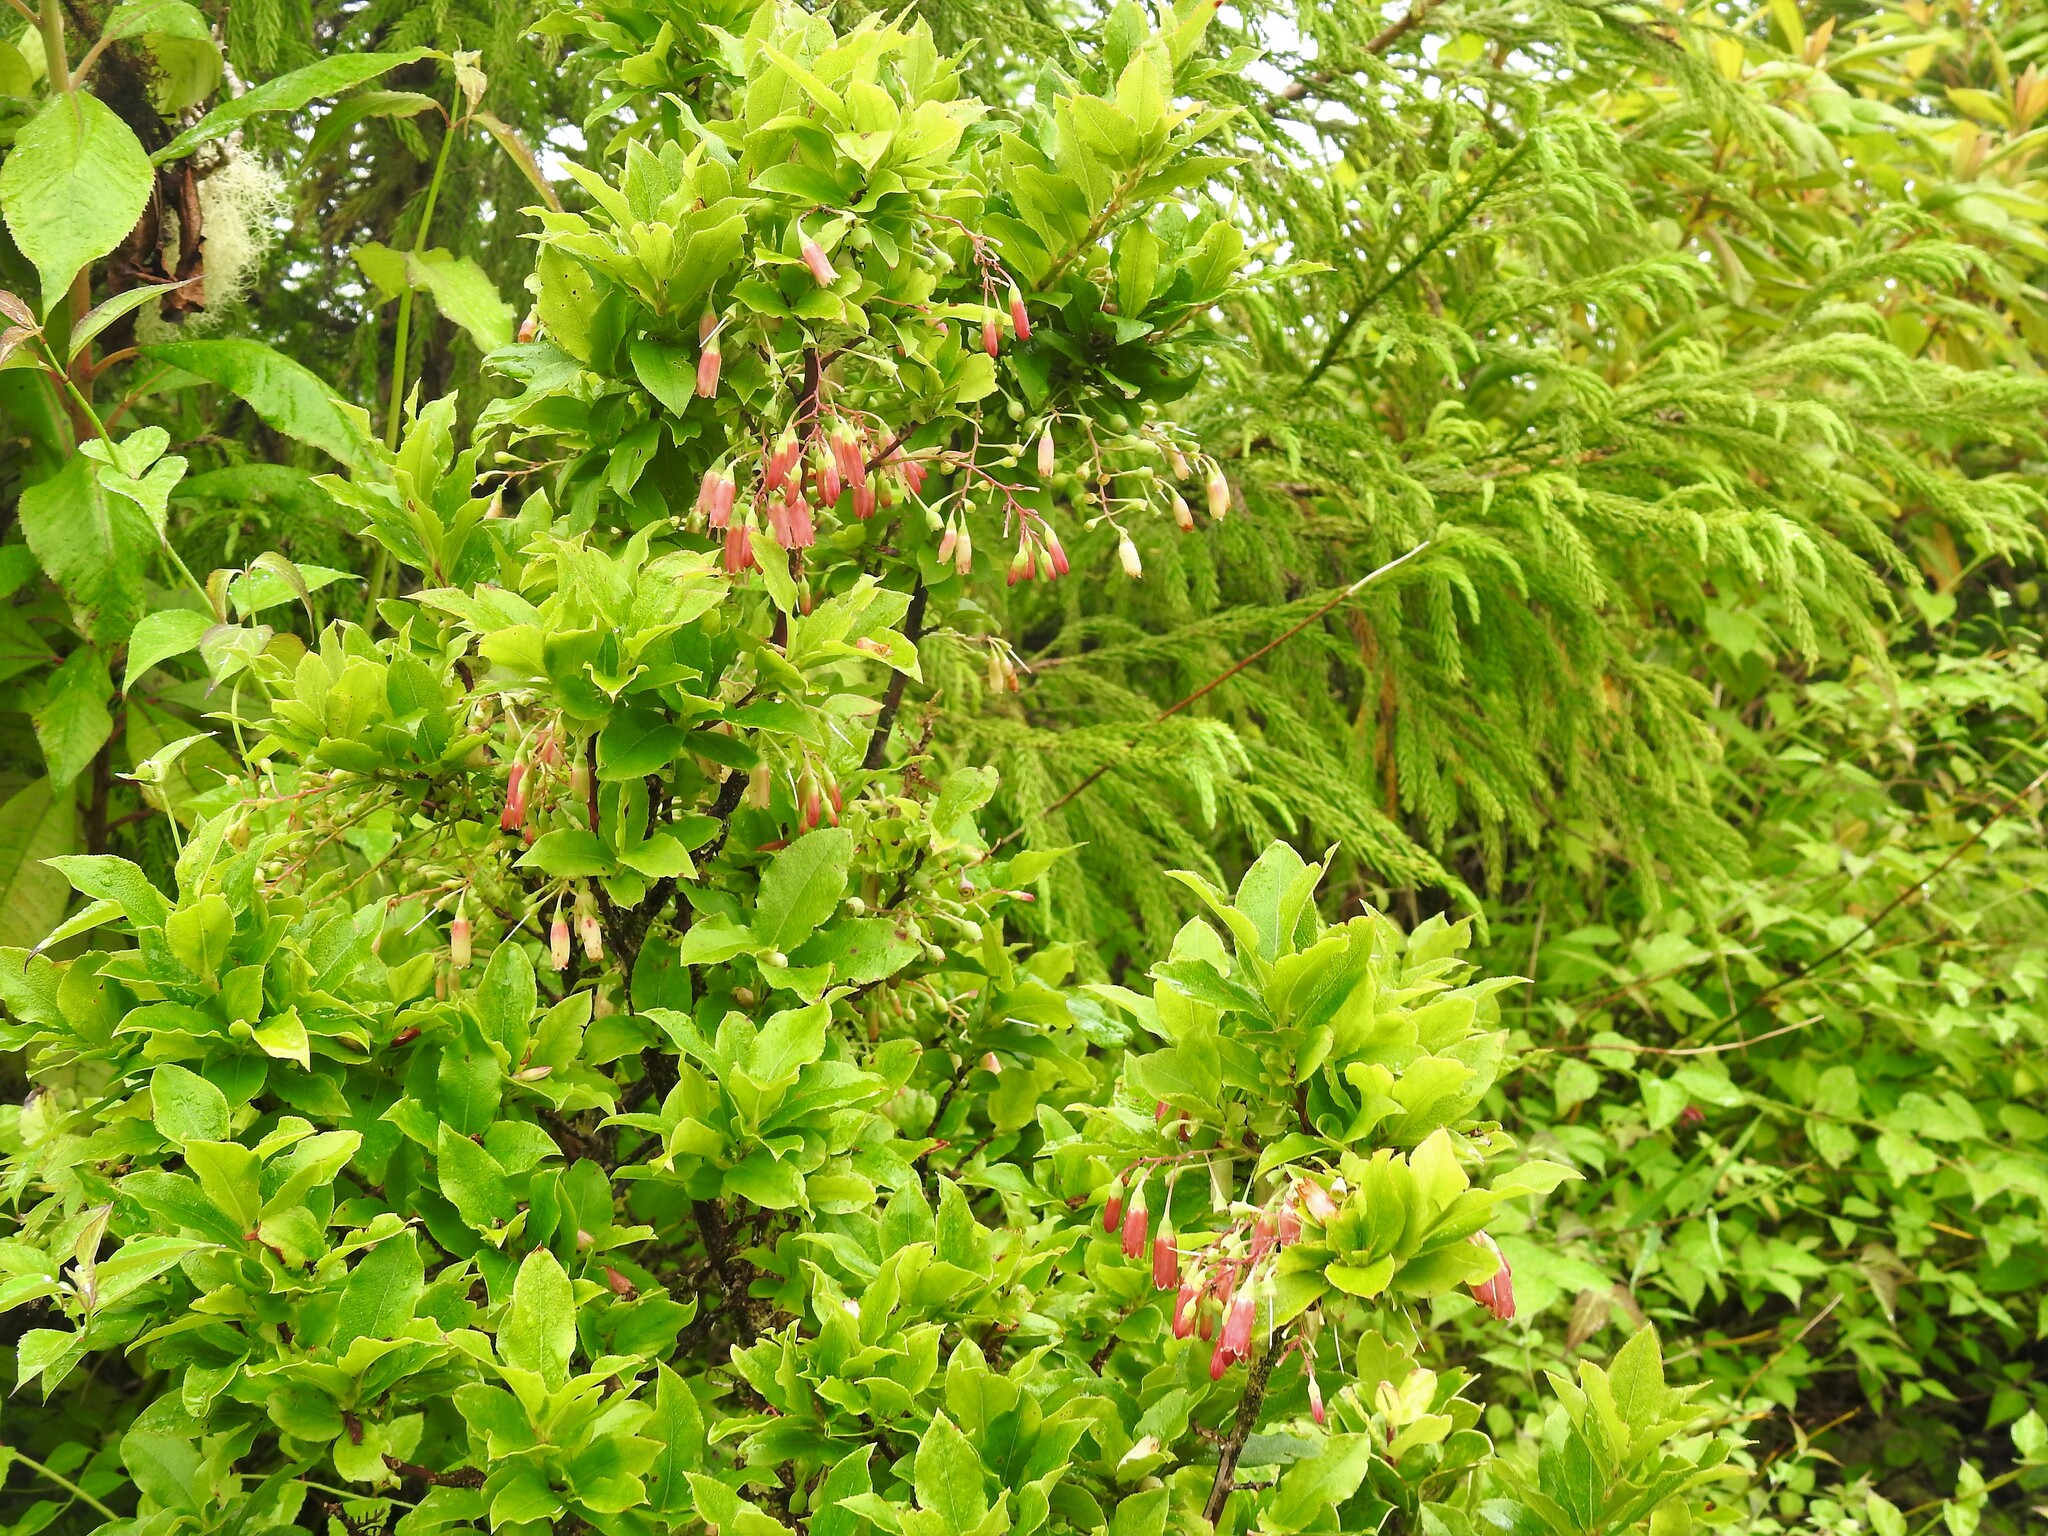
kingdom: Plantae
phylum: Tracheophyta
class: Magnoliopsida
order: Ericales
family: Ericaceae
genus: Vaccinium
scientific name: Vaccinium cylindraceum
